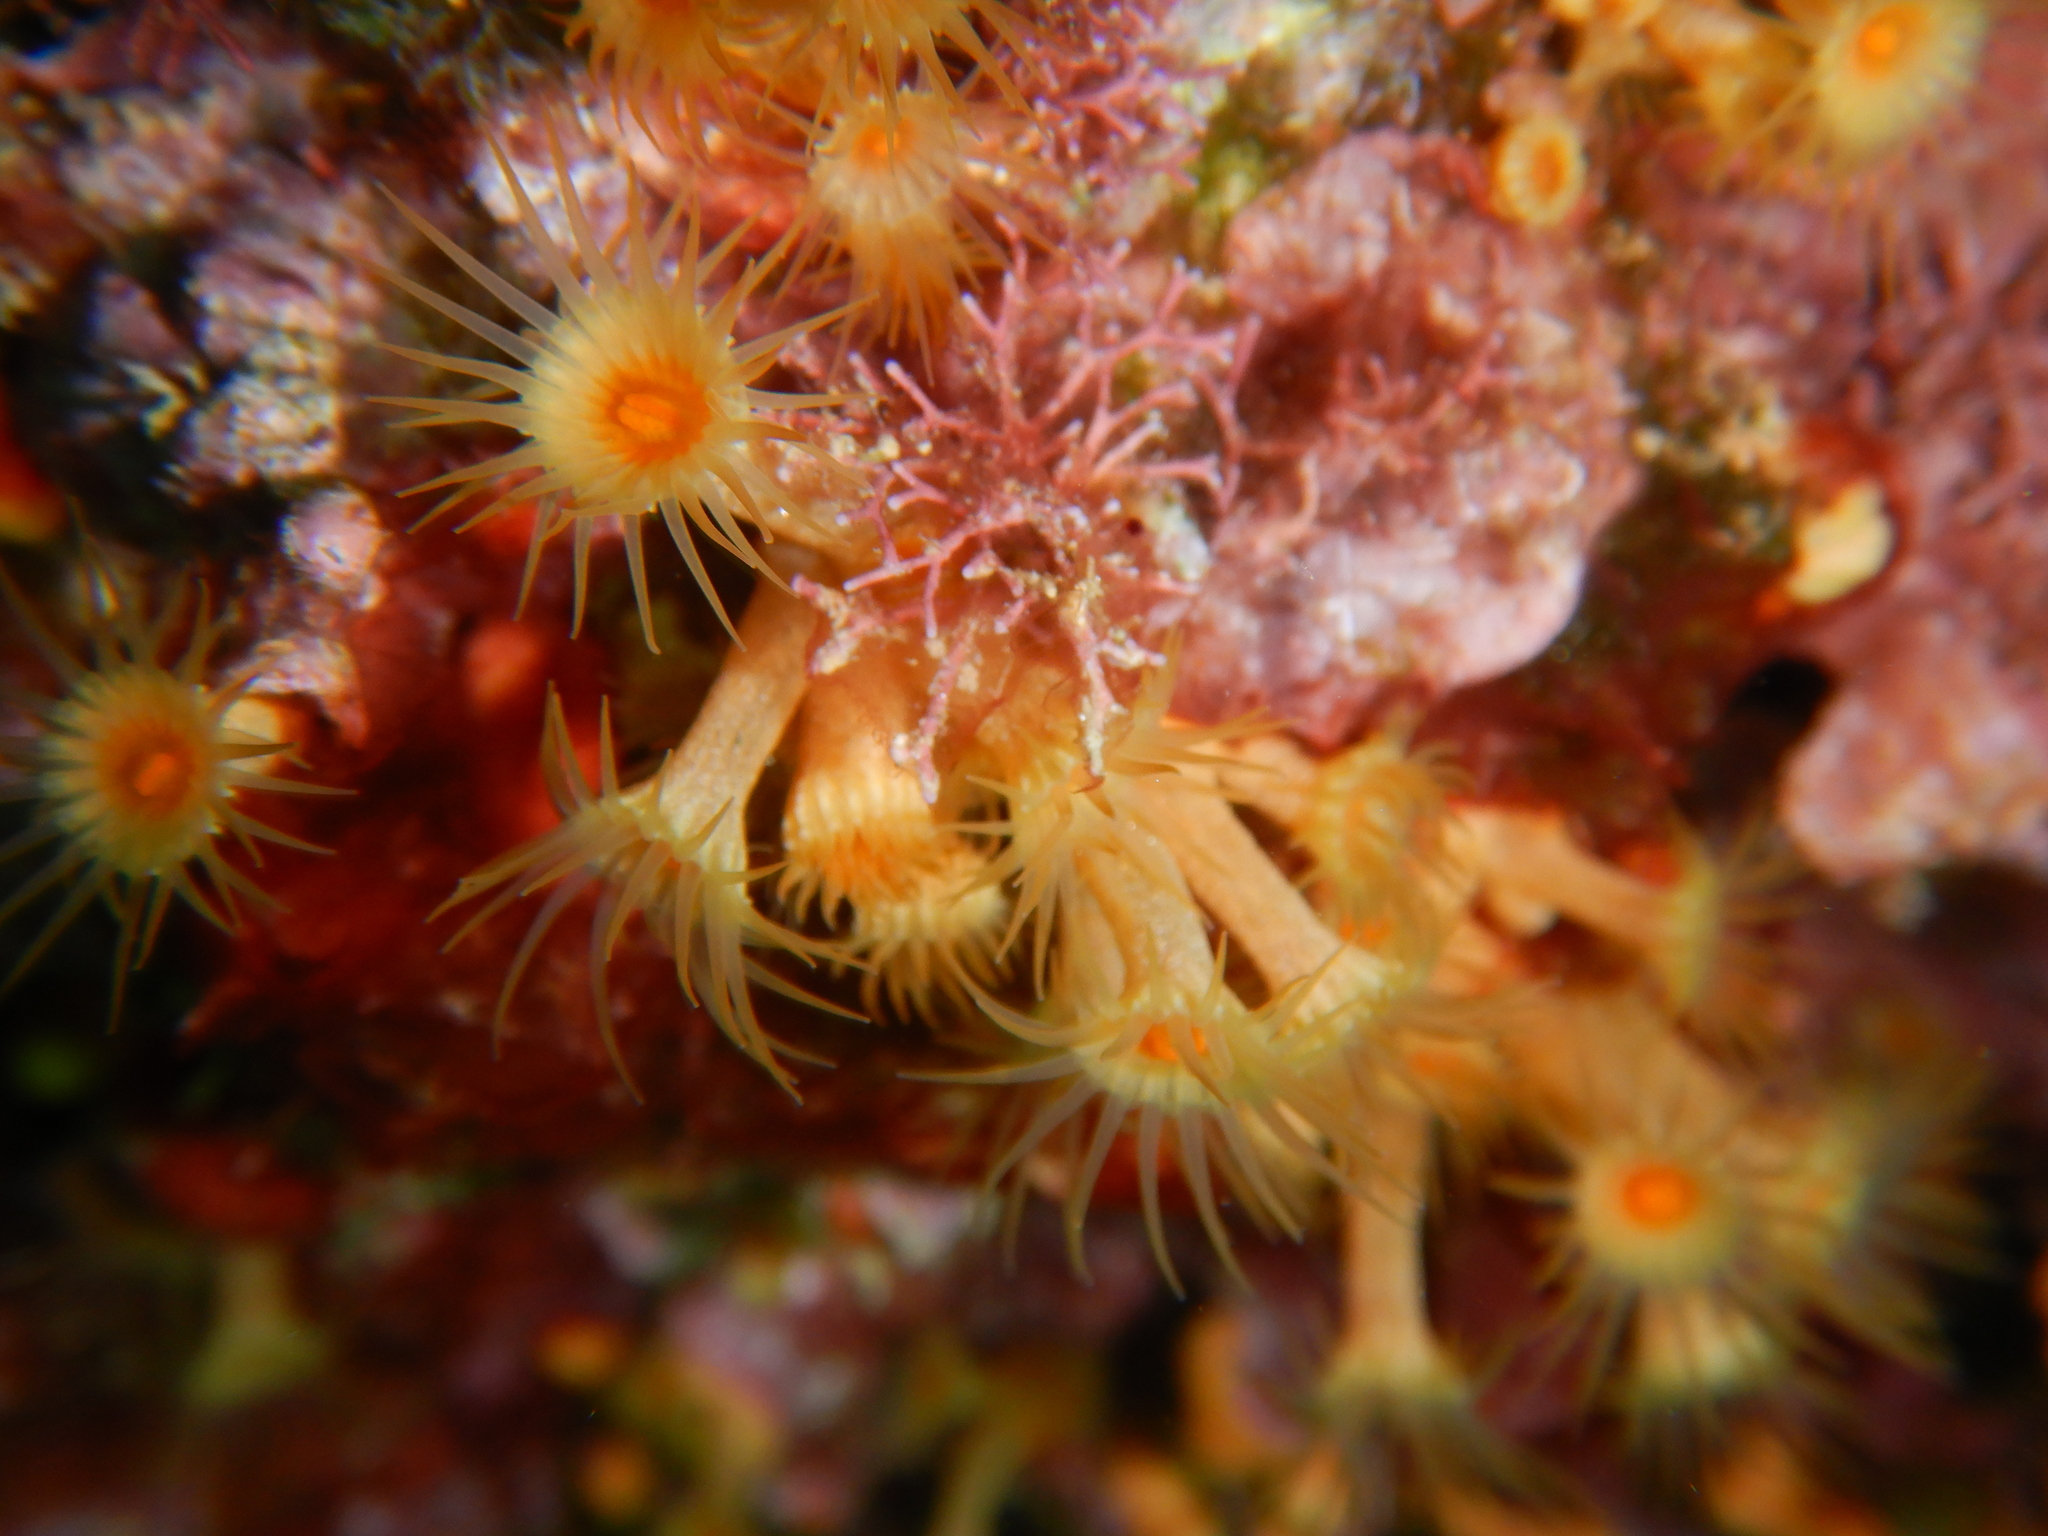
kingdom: Animalia
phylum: Cnidaria
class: Anthozoa
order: Zoantharia
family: Parazoanthidae
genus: Parazoanthus
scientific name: Parazoanthus axinellae
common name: Yellow cluster anemone
